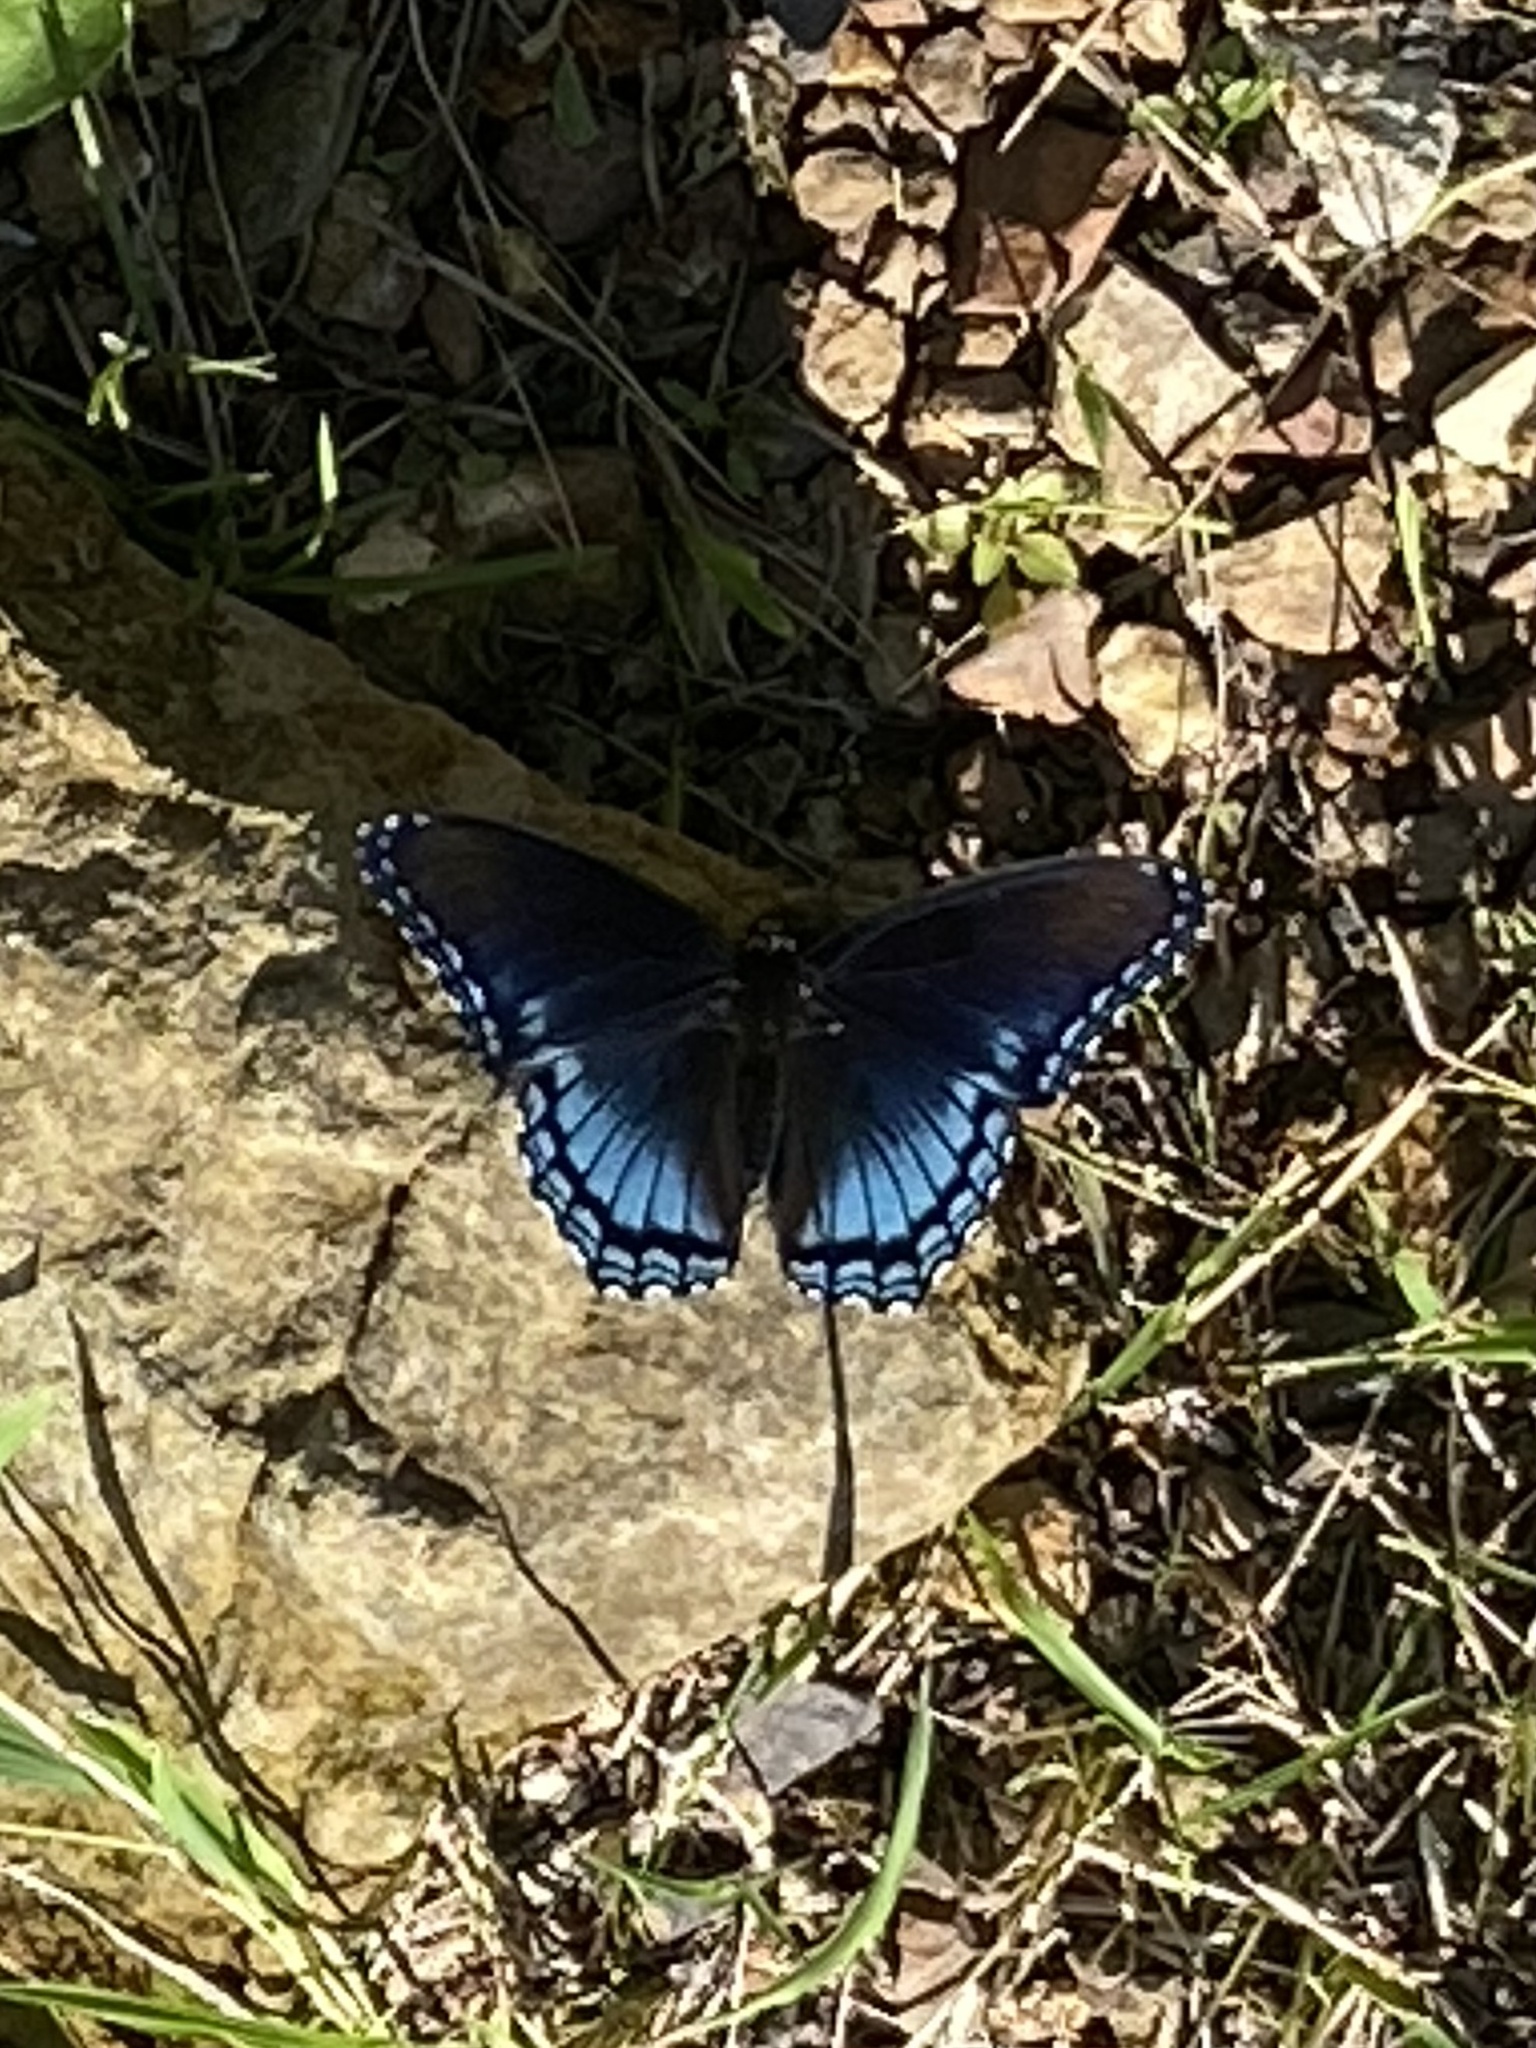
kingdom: Animalia
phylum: Arthropoda
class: Insecta
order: Lepidoptera
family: Nymphalidae
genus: Limenitis
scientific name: Limenitis astyanax
